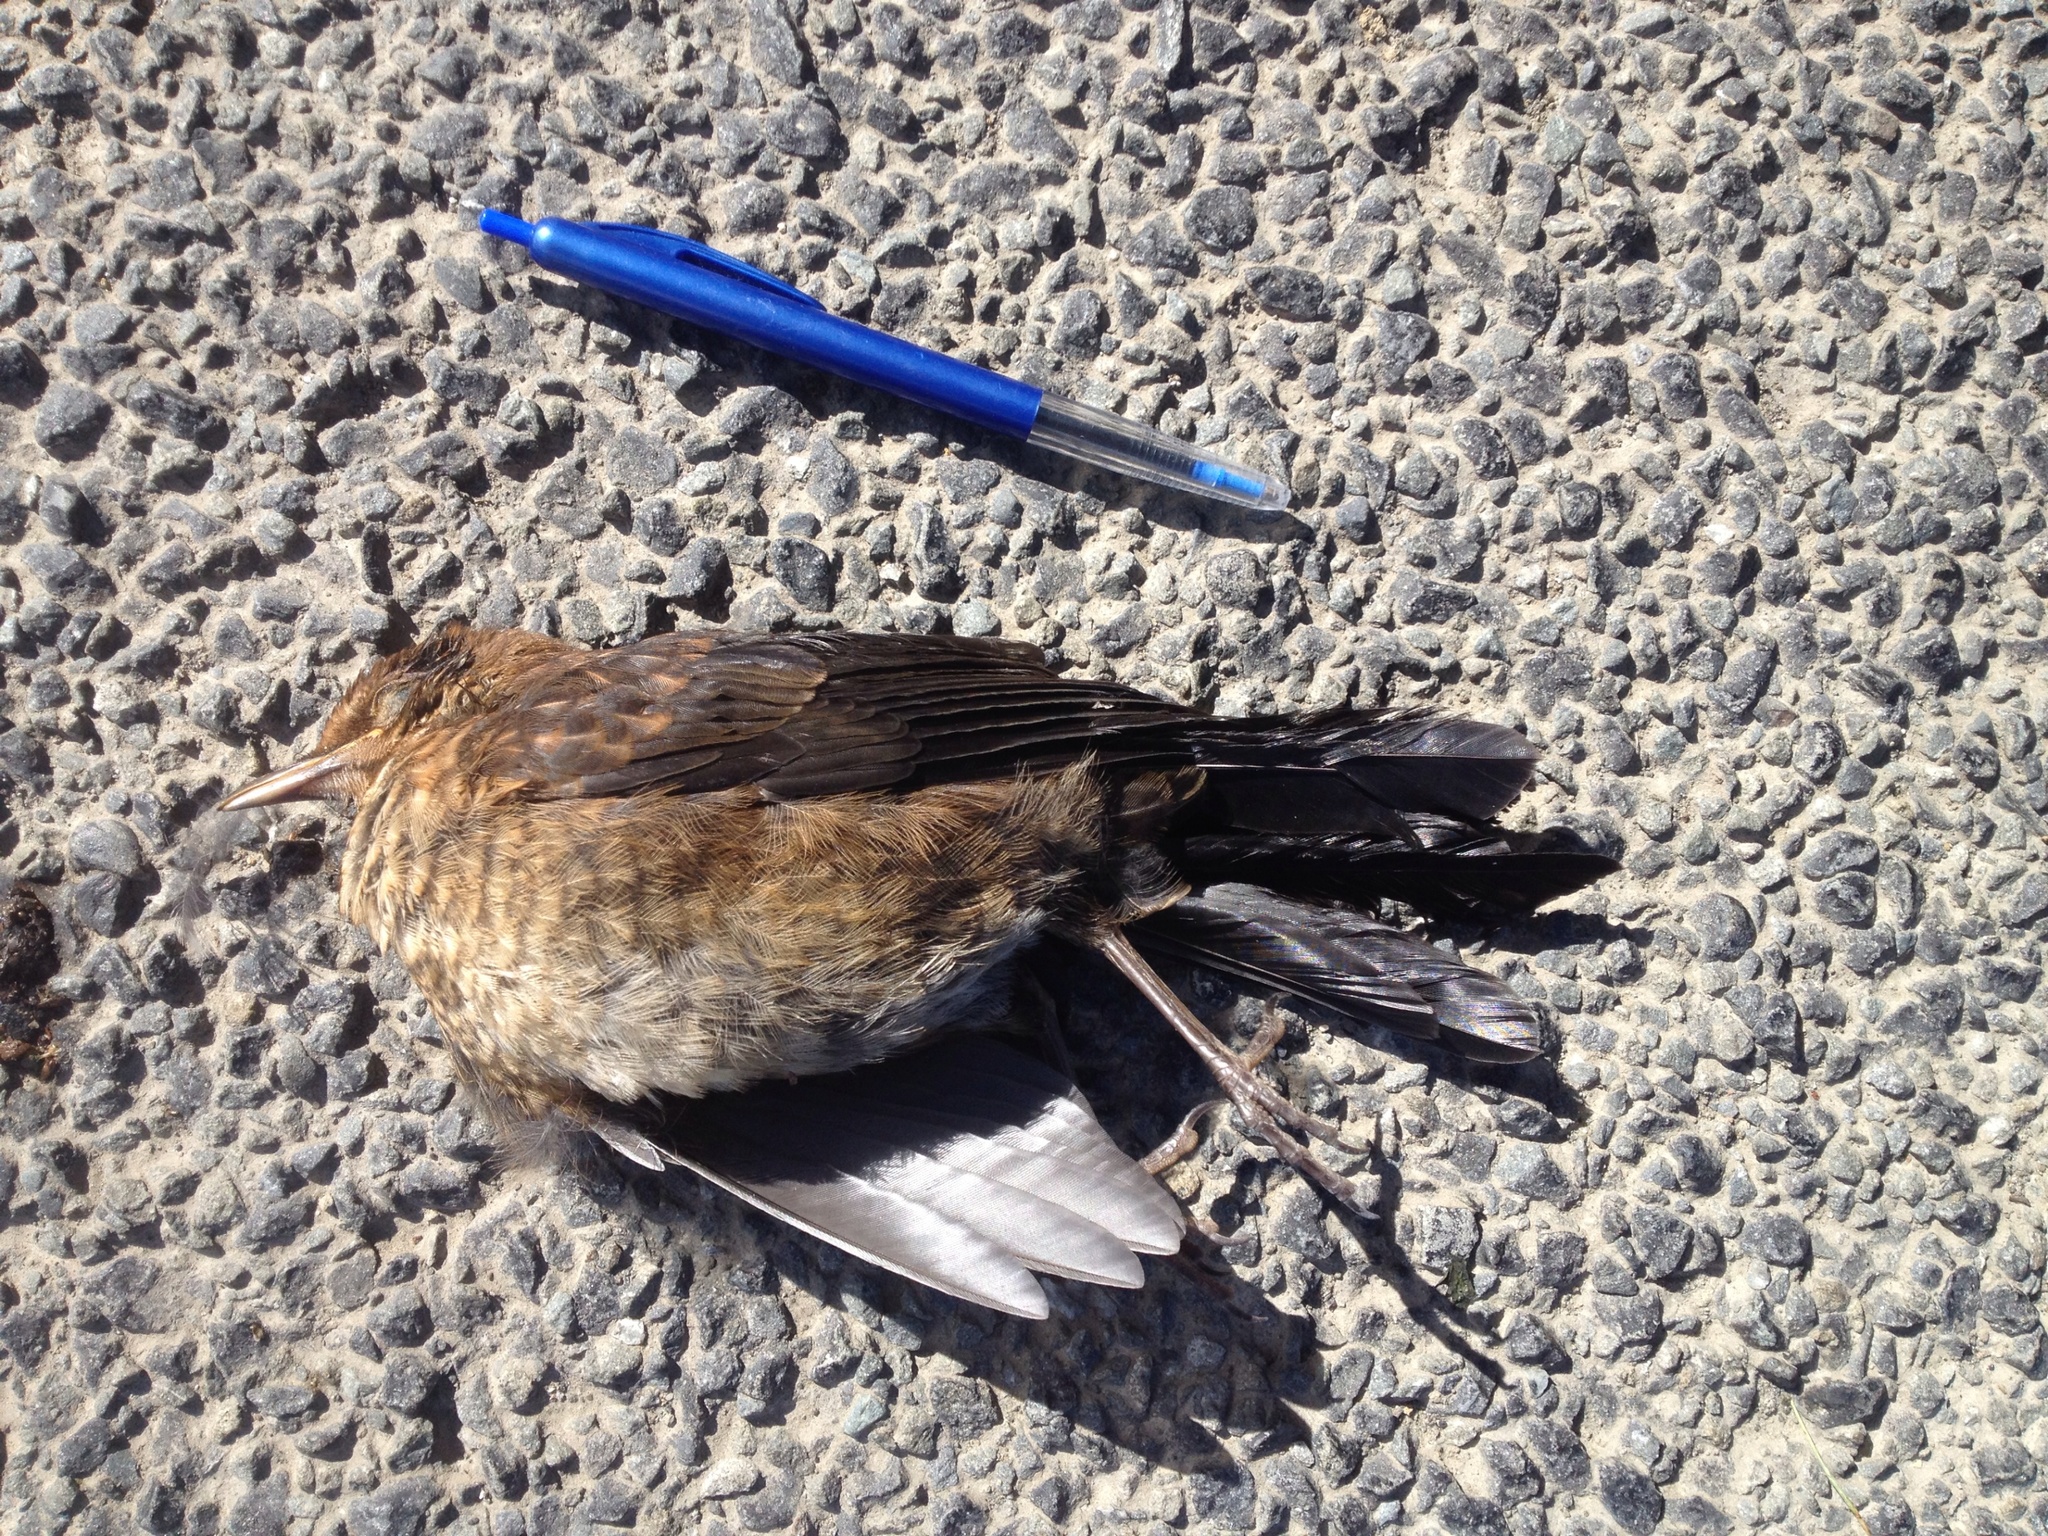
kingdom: Animalia
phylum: Chordata
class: Aves
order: Passeriformes
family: Turdidae
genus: Turdus
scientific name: Turdus merula
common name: Common blackbird
